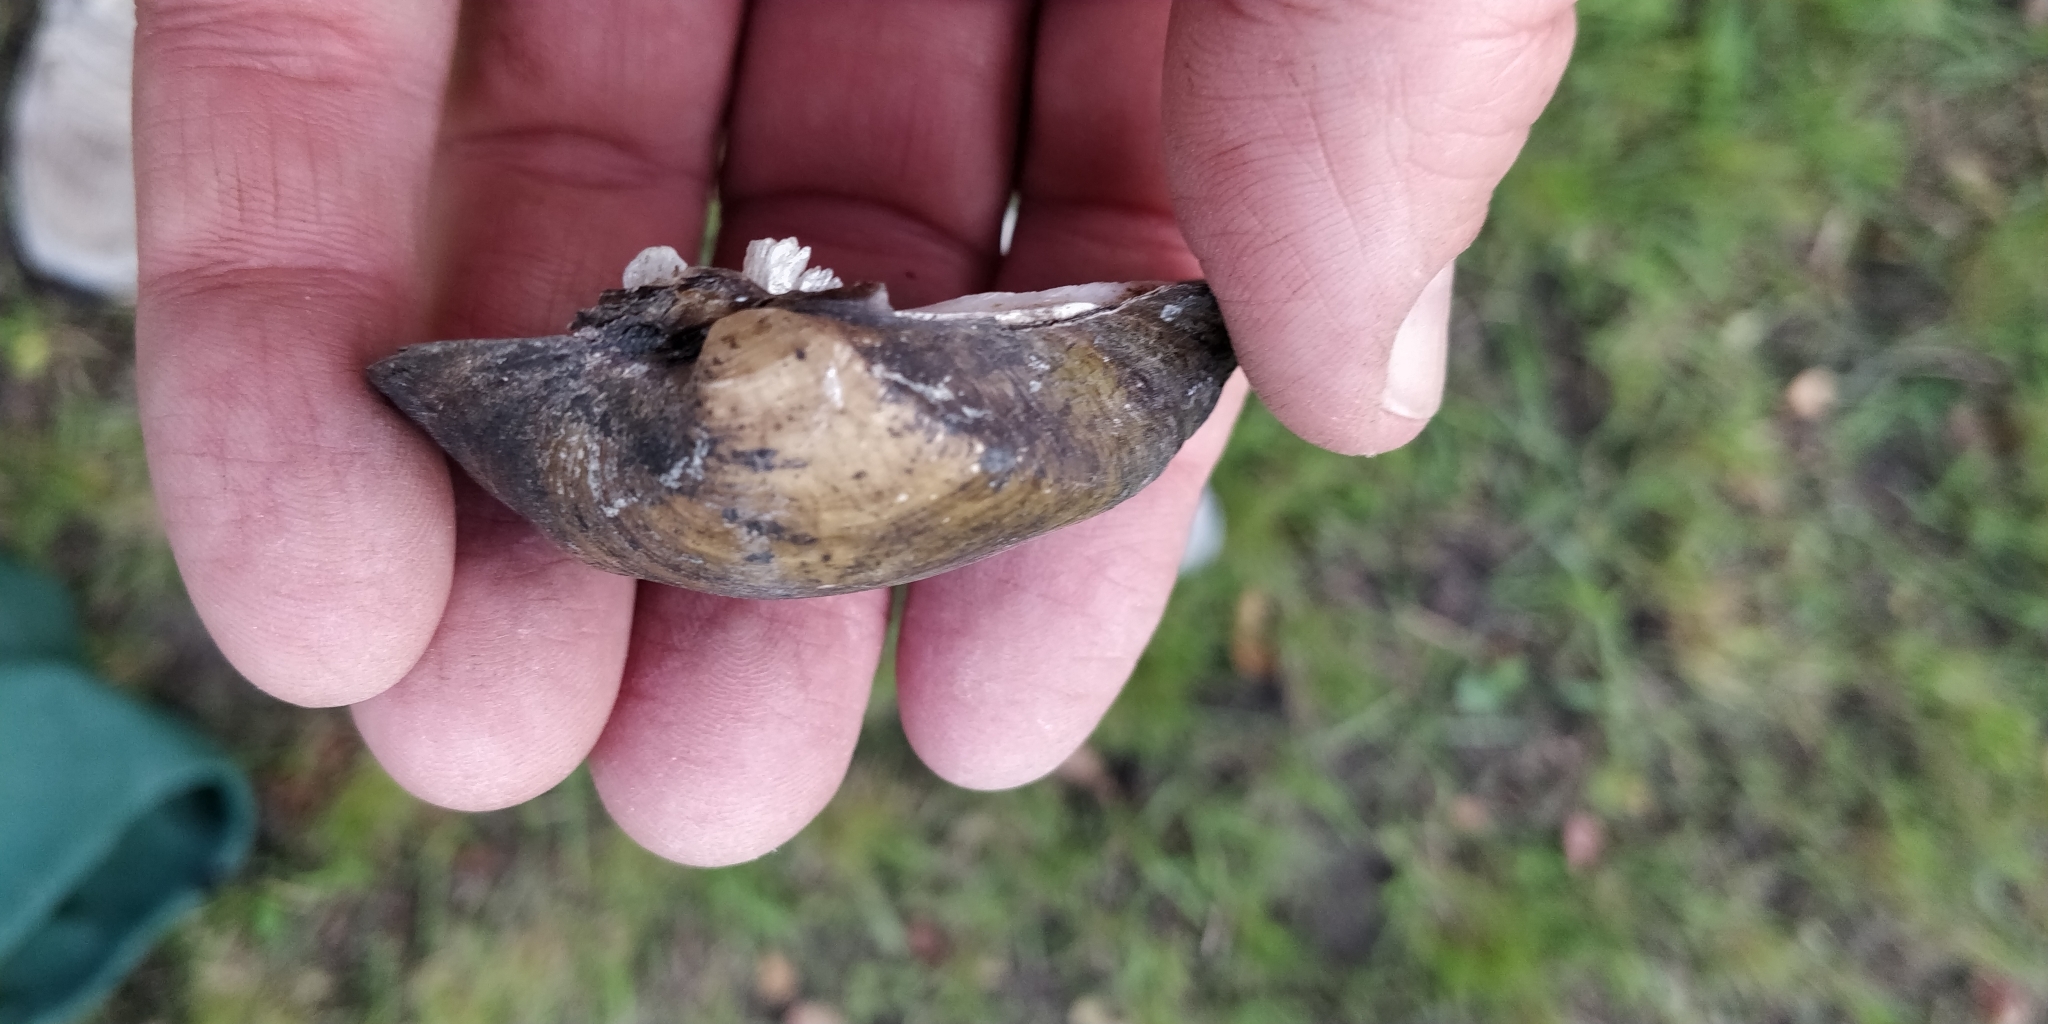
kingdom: Animalia
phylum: Mollusca
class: Bivalvia
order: Unionida
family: Unionidae
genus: Truncilla
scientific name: Truncilla truncata
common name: Deertoe
